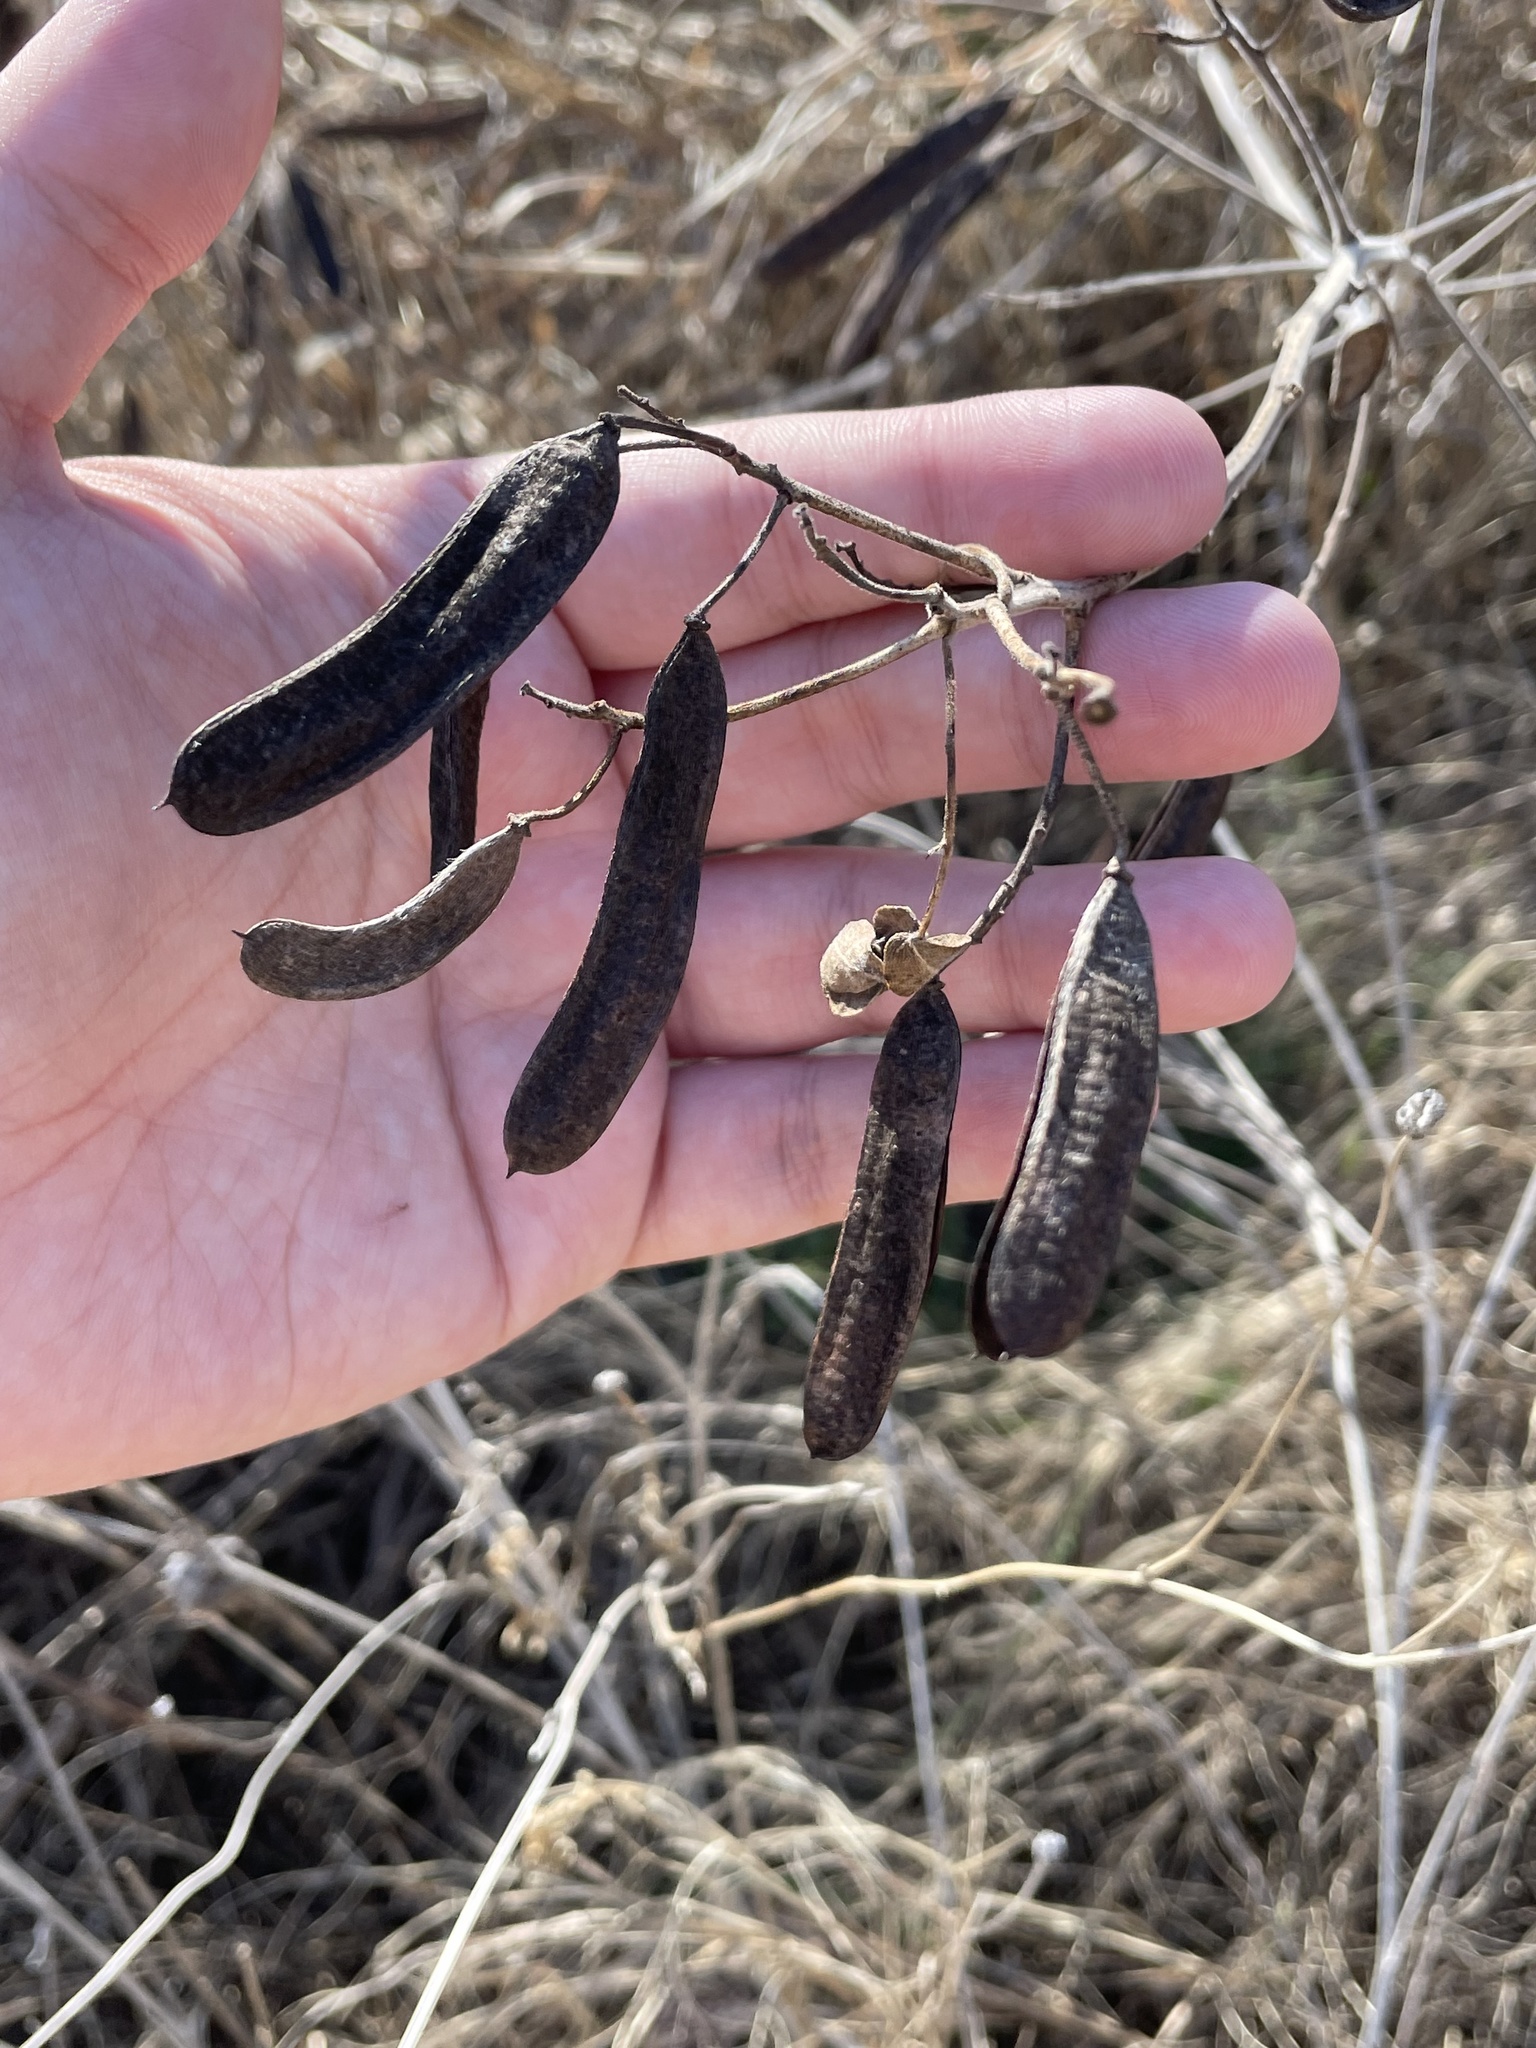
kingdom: Plantae
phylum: Tracheophyta
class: Magnoliopsida
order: Fabales
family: Fabaceae
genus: Senna
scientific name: Senna lindheimeriana
